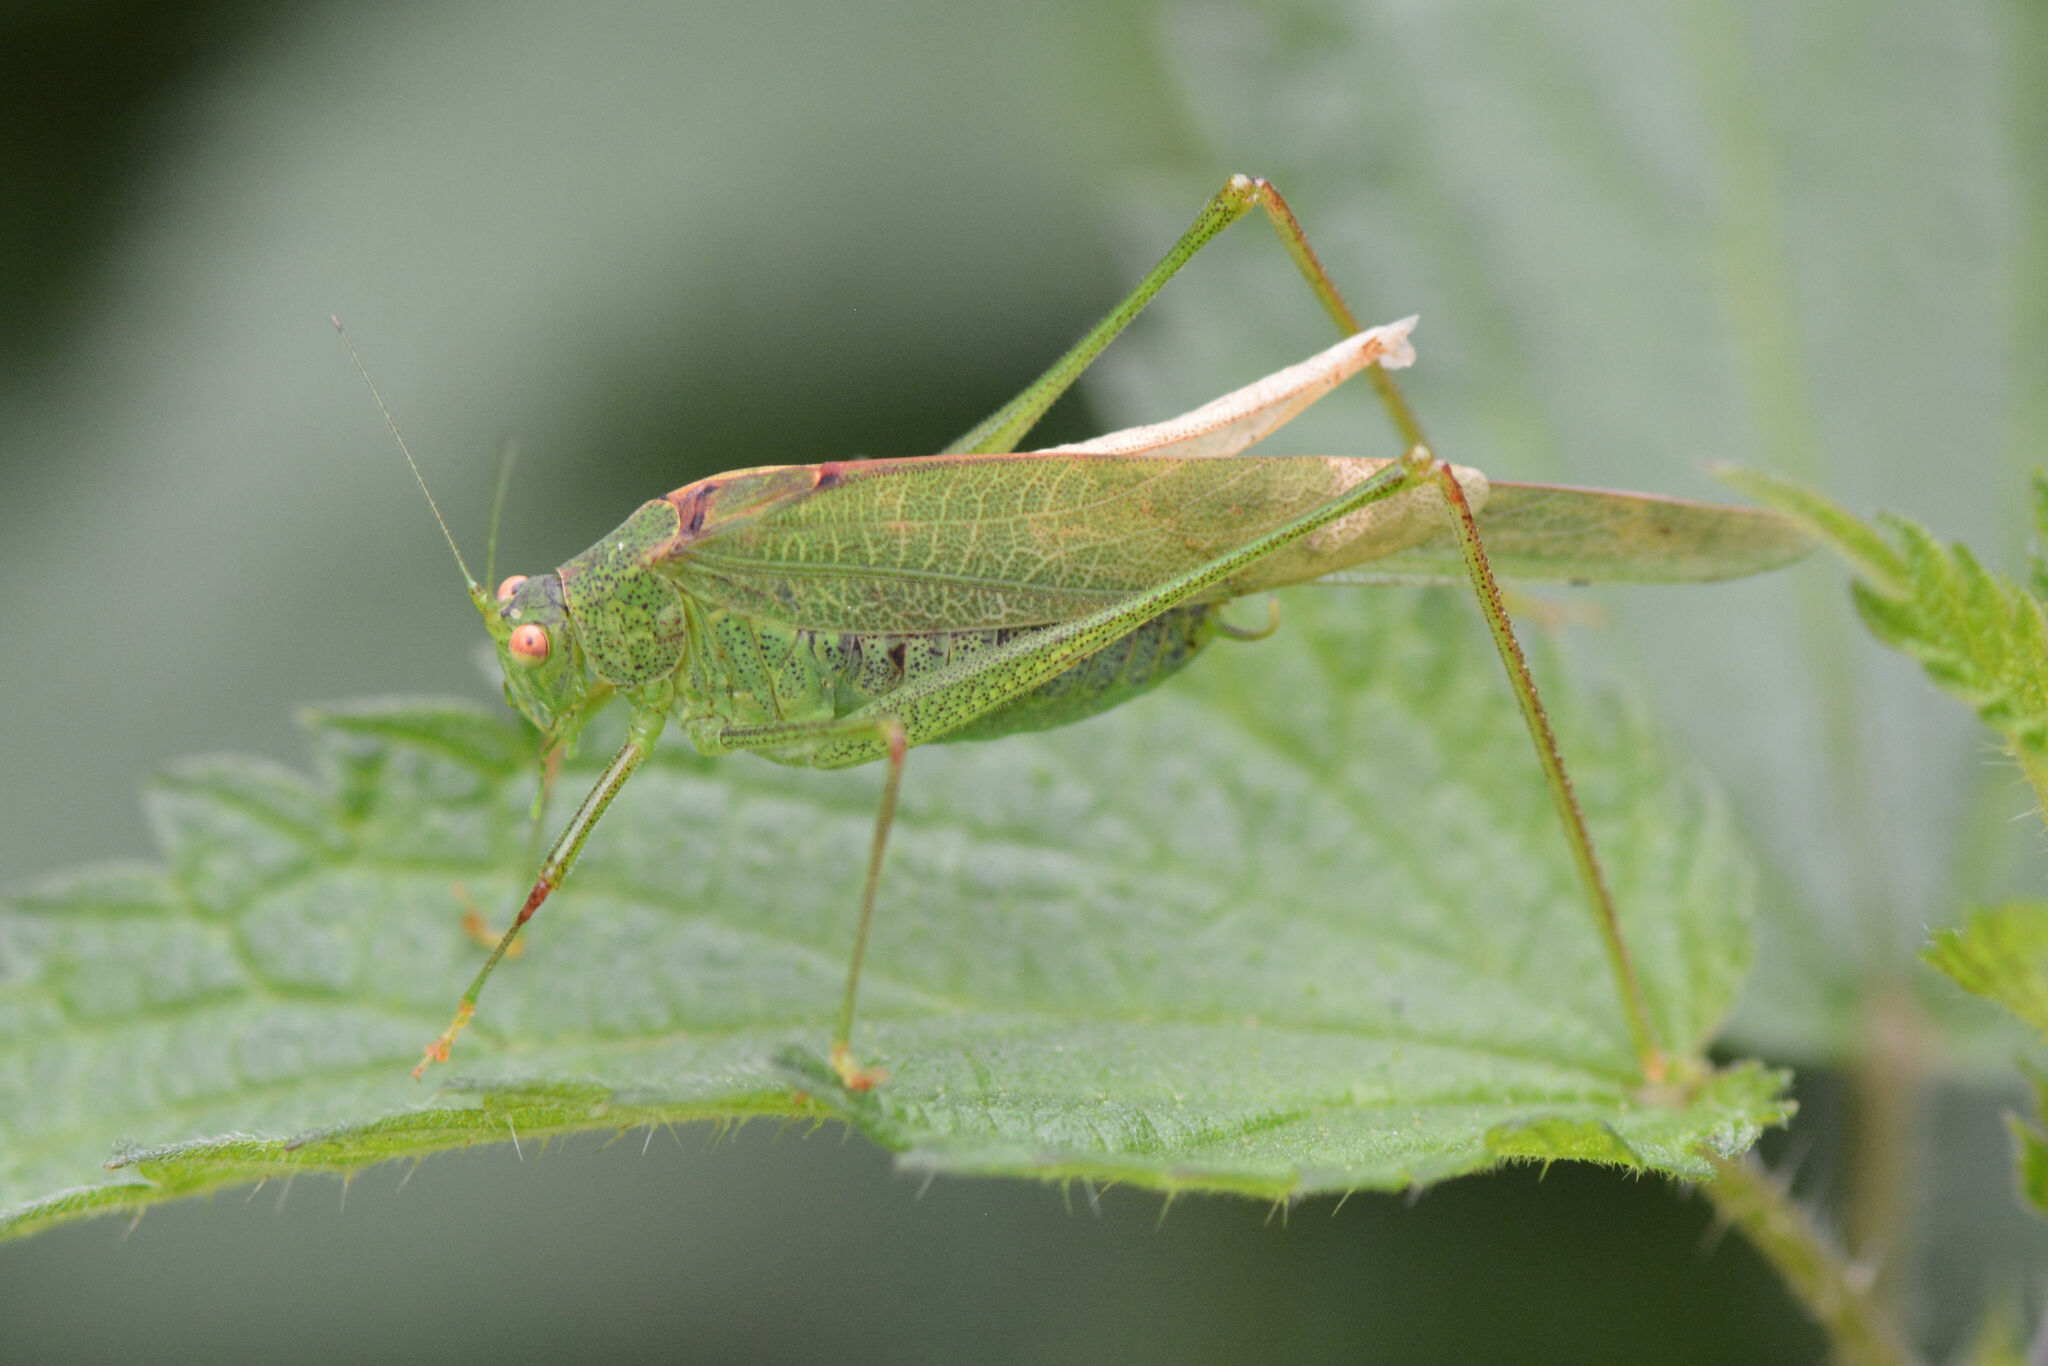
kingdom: Animalia
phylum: Arthropoda
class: Insecta
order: Orthoptera
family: Tettigoniidae
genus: Phaneroptera
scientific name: Phaneroptera nana
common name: Southern sickle bush-cricket
